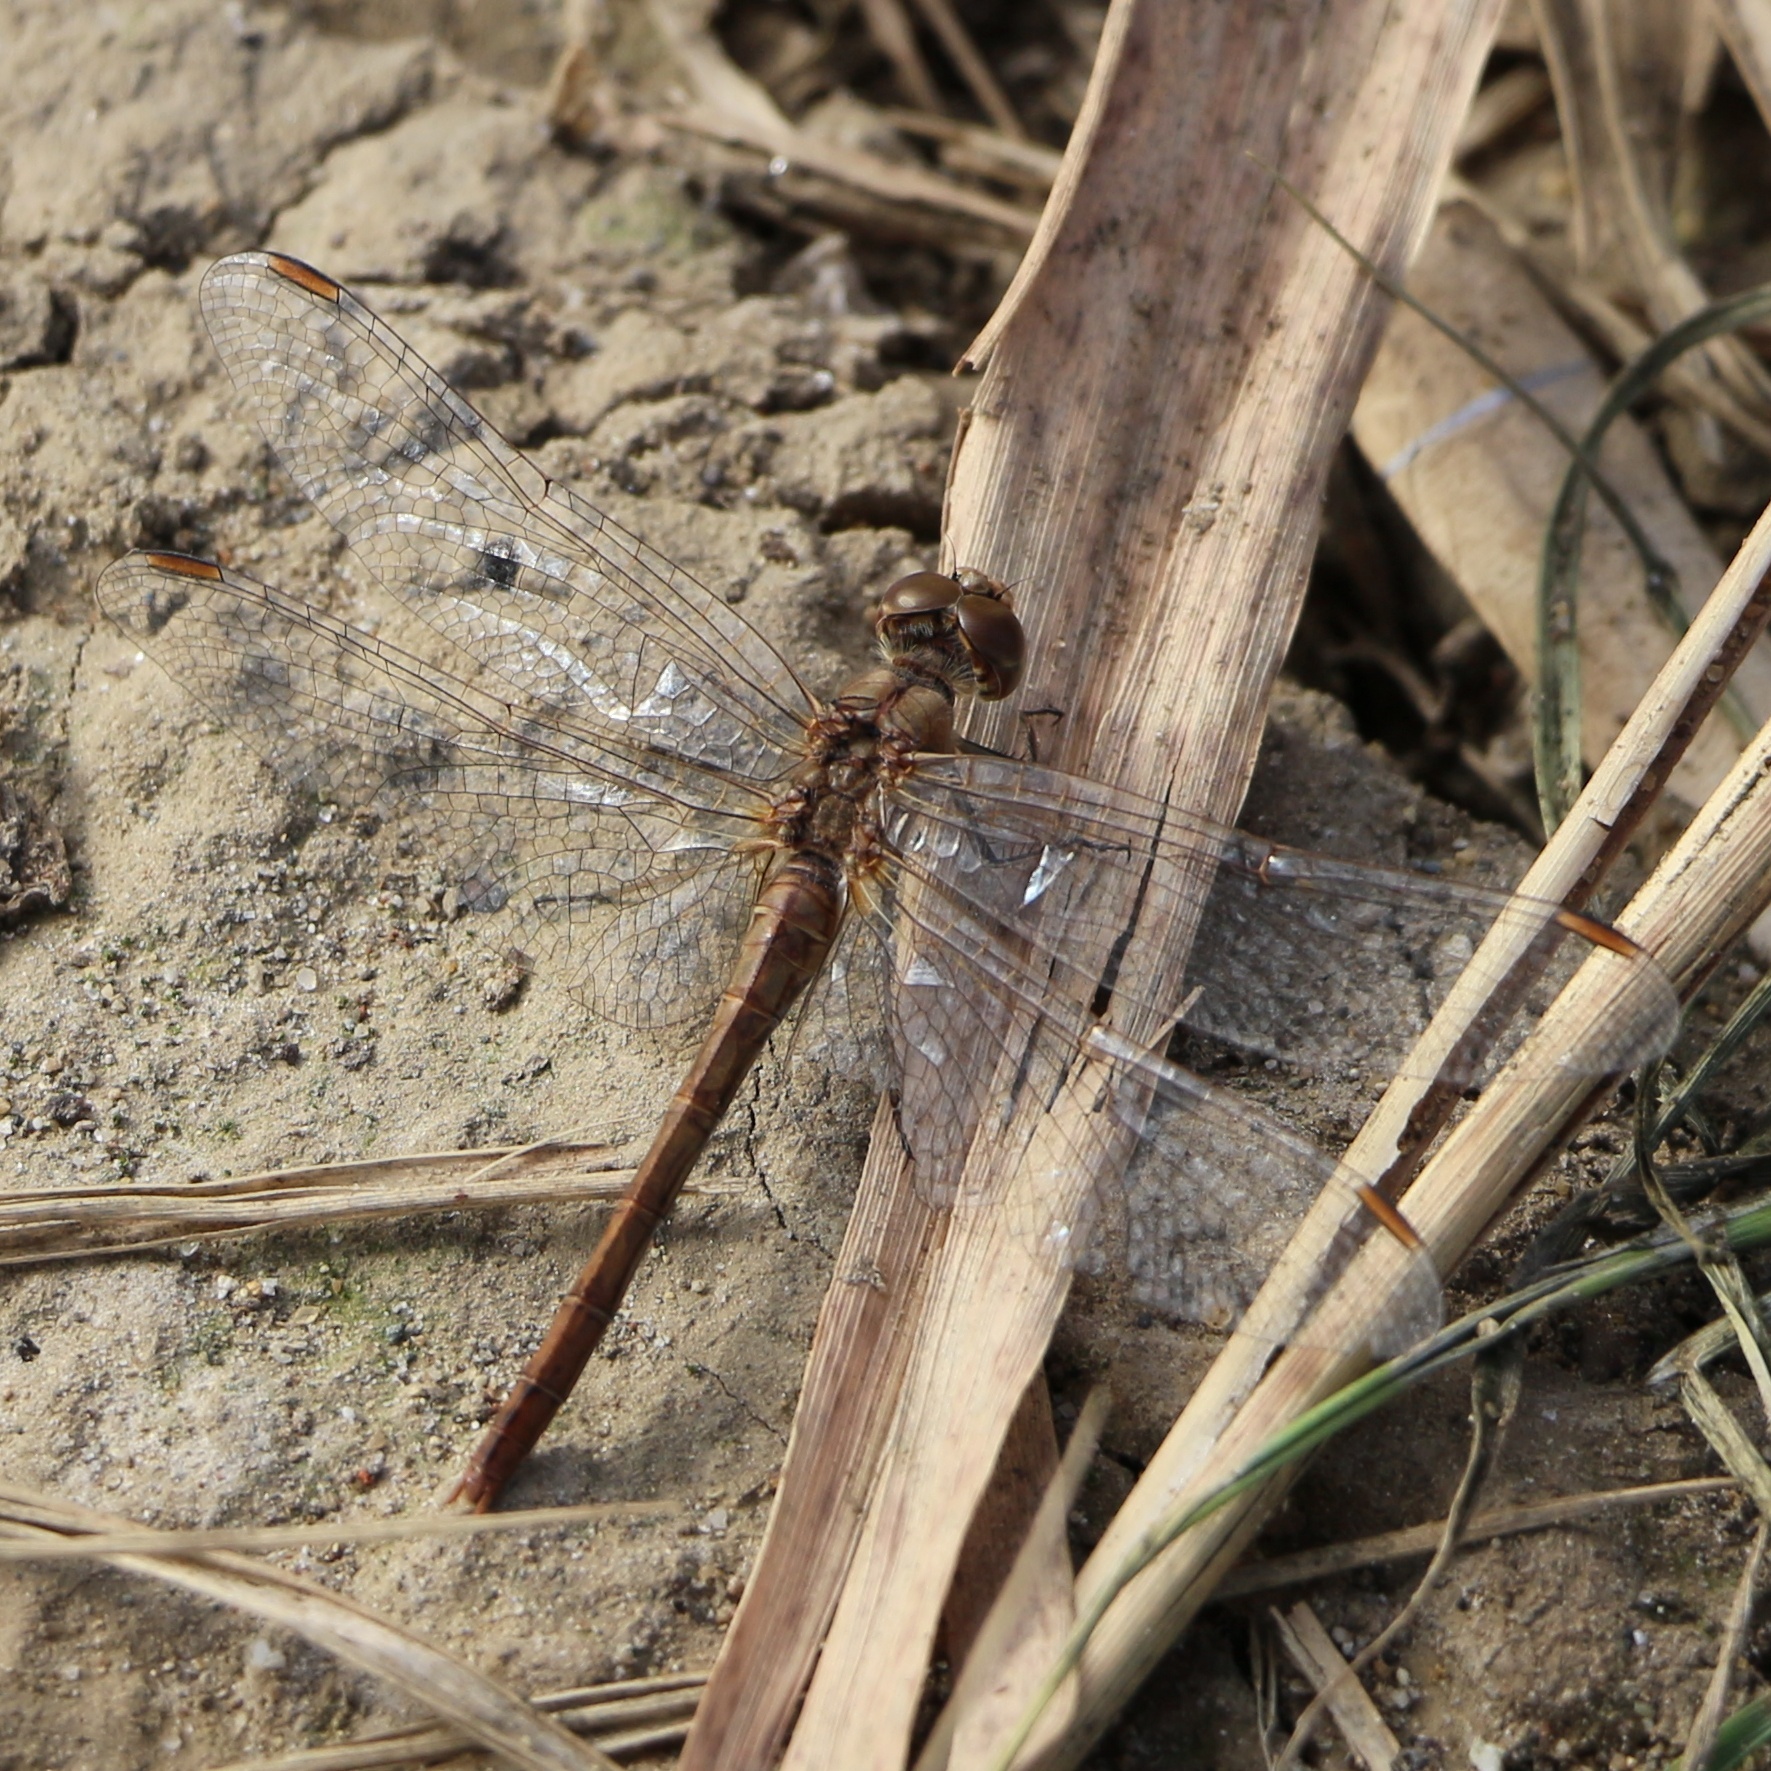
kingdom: Animalia
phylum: Arthropoda
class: Insecta
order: Odonata
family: Libellulidae
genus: Sympetrum
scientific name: Sympetrum meridionale
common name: Southern darter
